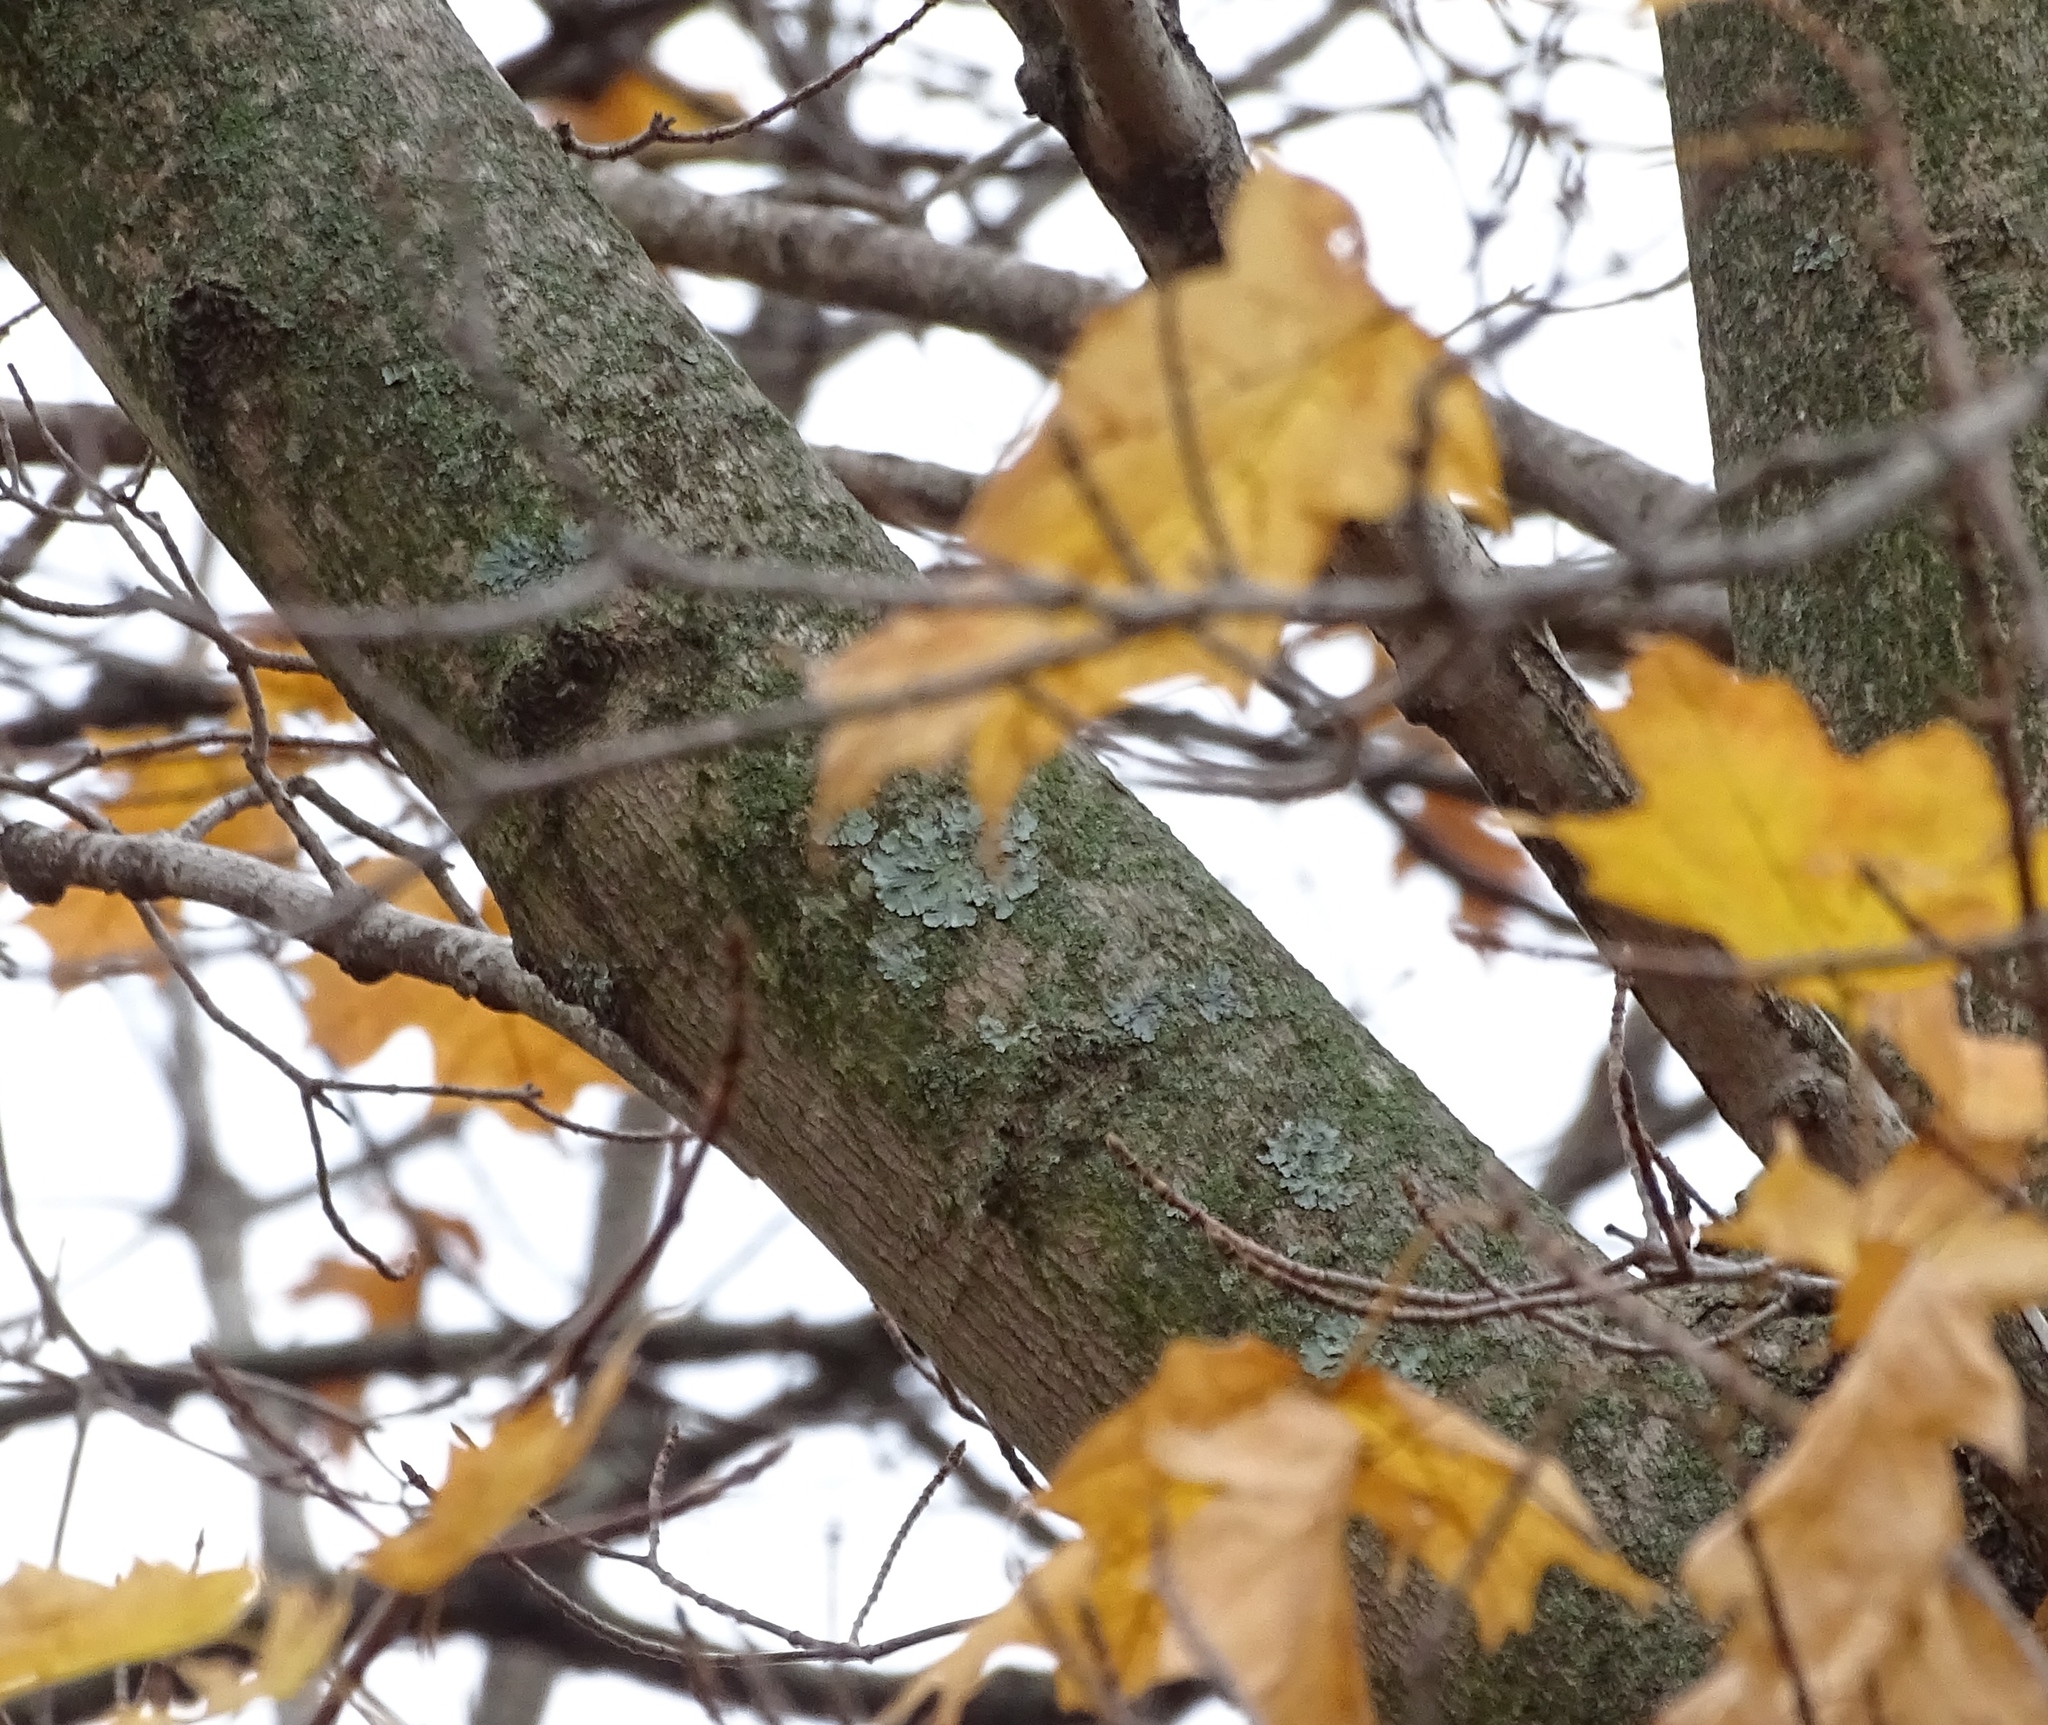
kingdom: Plantae
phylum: Tracheophyta
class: Magnoliopsida
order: Sapindales
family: Sapindaceae
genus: Acer
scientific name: Acer platanoides
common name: Norway maple
